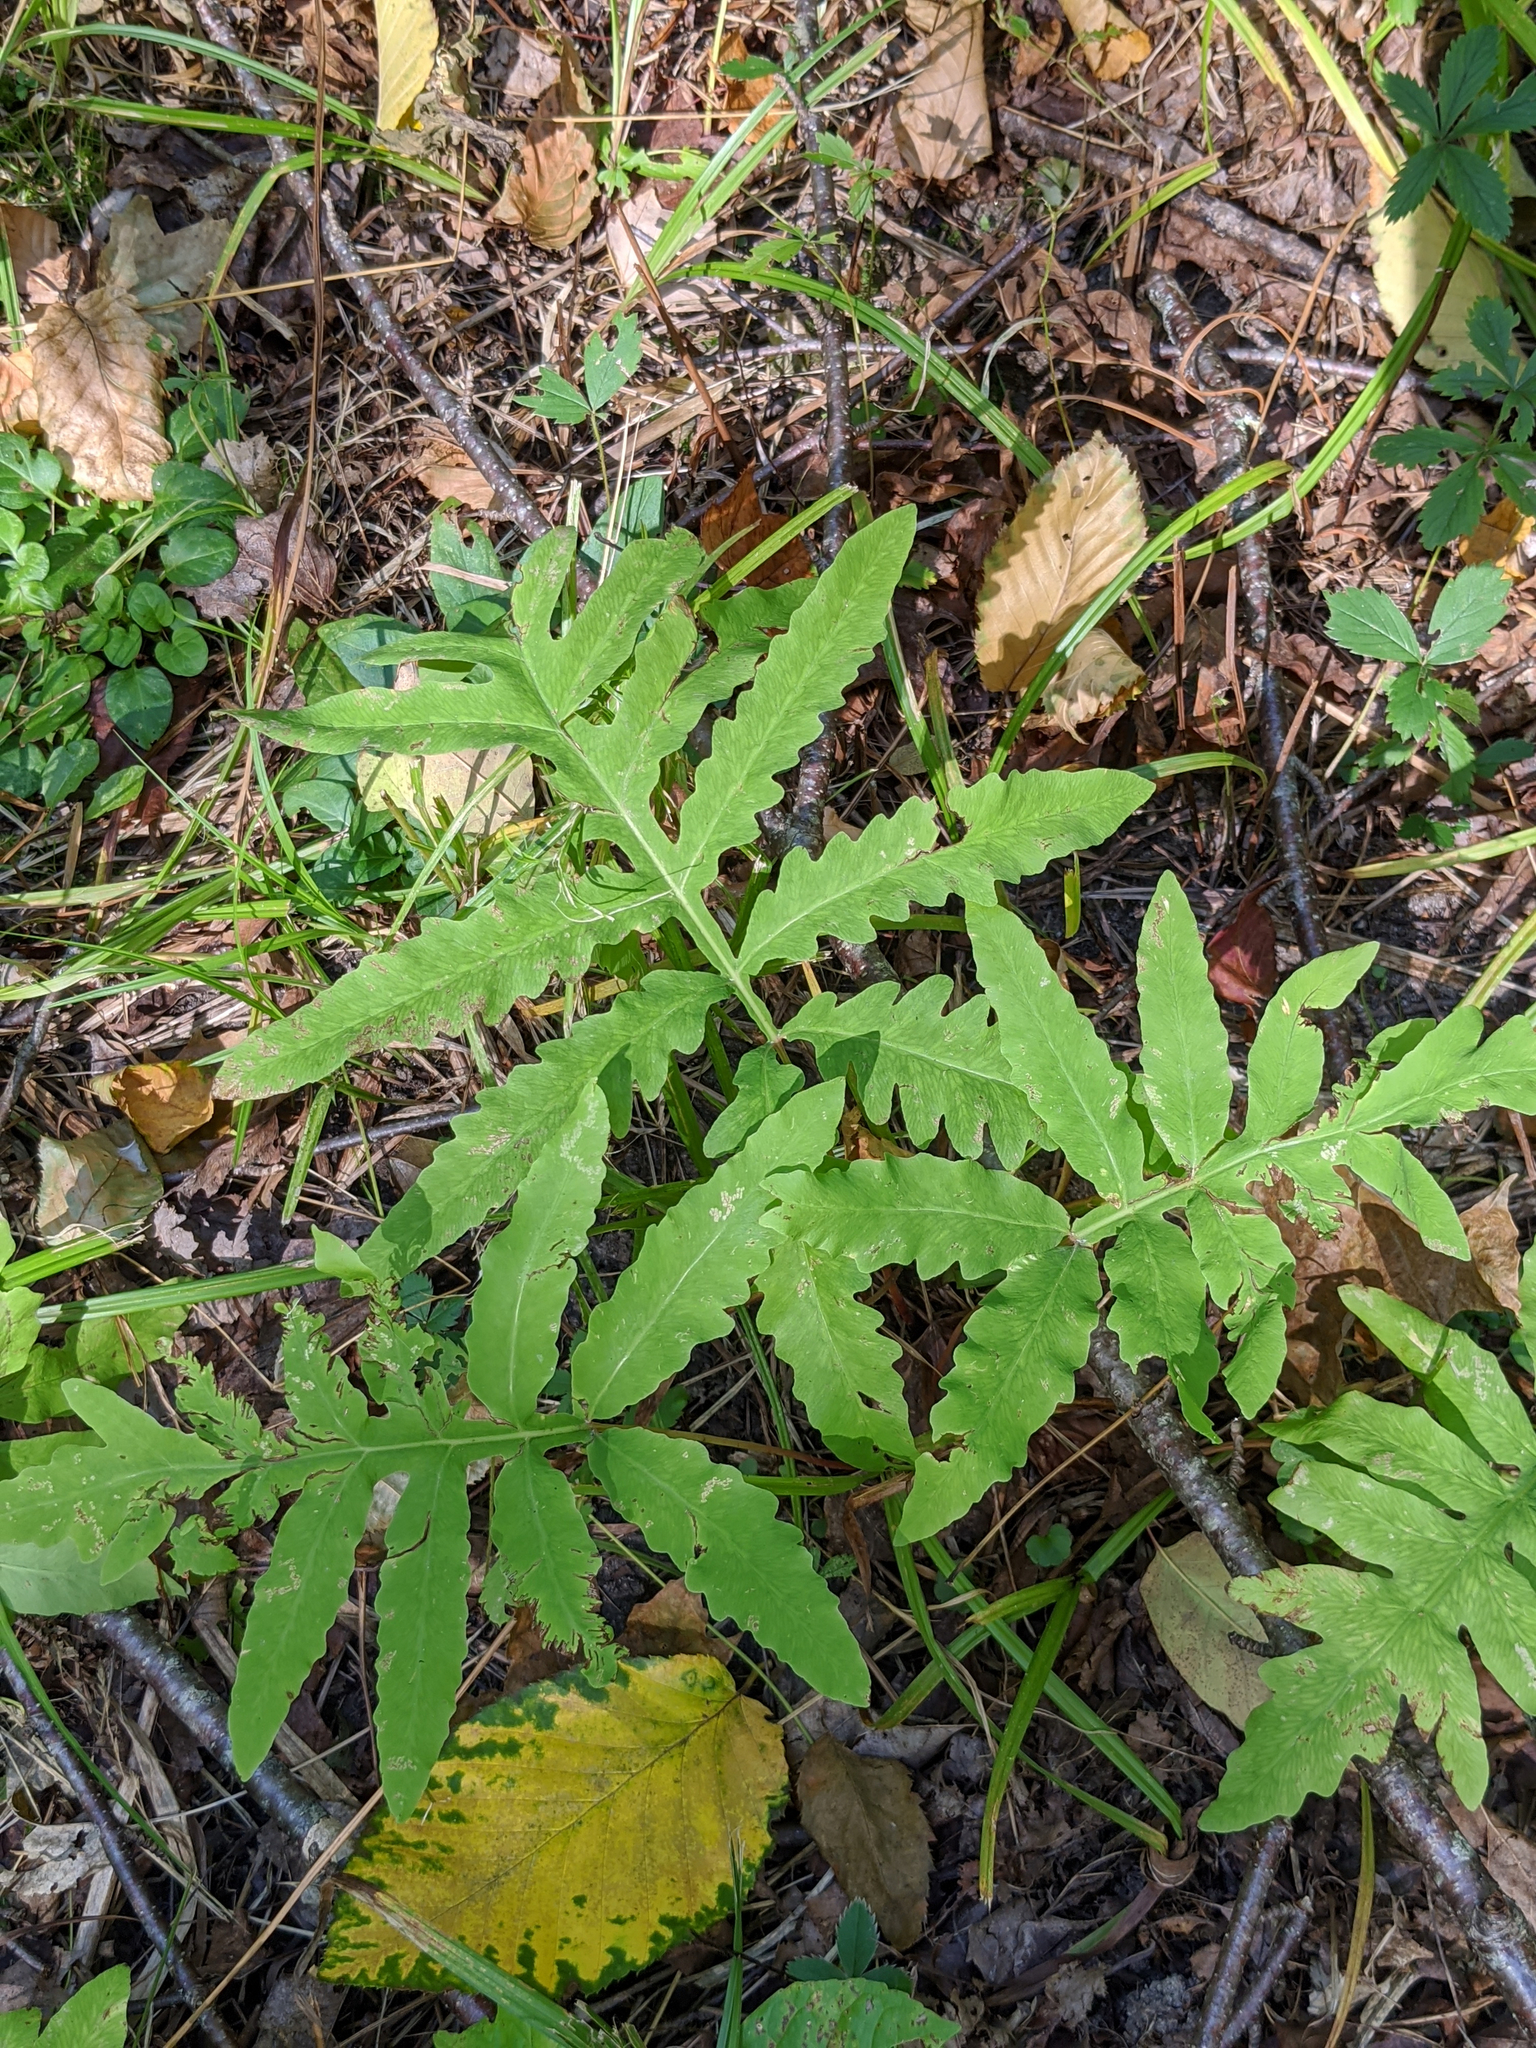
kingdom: Plantae
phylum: Tracheophyta
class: Polypodiopsida
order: Polypodiales
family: Onocleaceae
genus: Onoclea
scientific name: Onoclea sensibilis
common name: Sensitive fern
